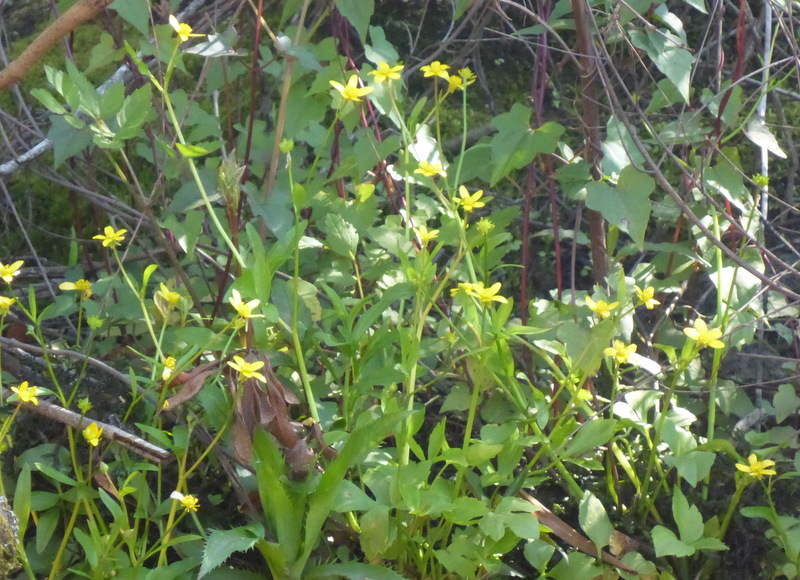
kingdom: Plantae
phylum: Tracheophyta
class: Magnoliopsida
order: Ranunculales
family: Ranunculaceae
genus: Ranunculus
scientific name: Ranunculus hispidus
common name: Bristly buttercup
